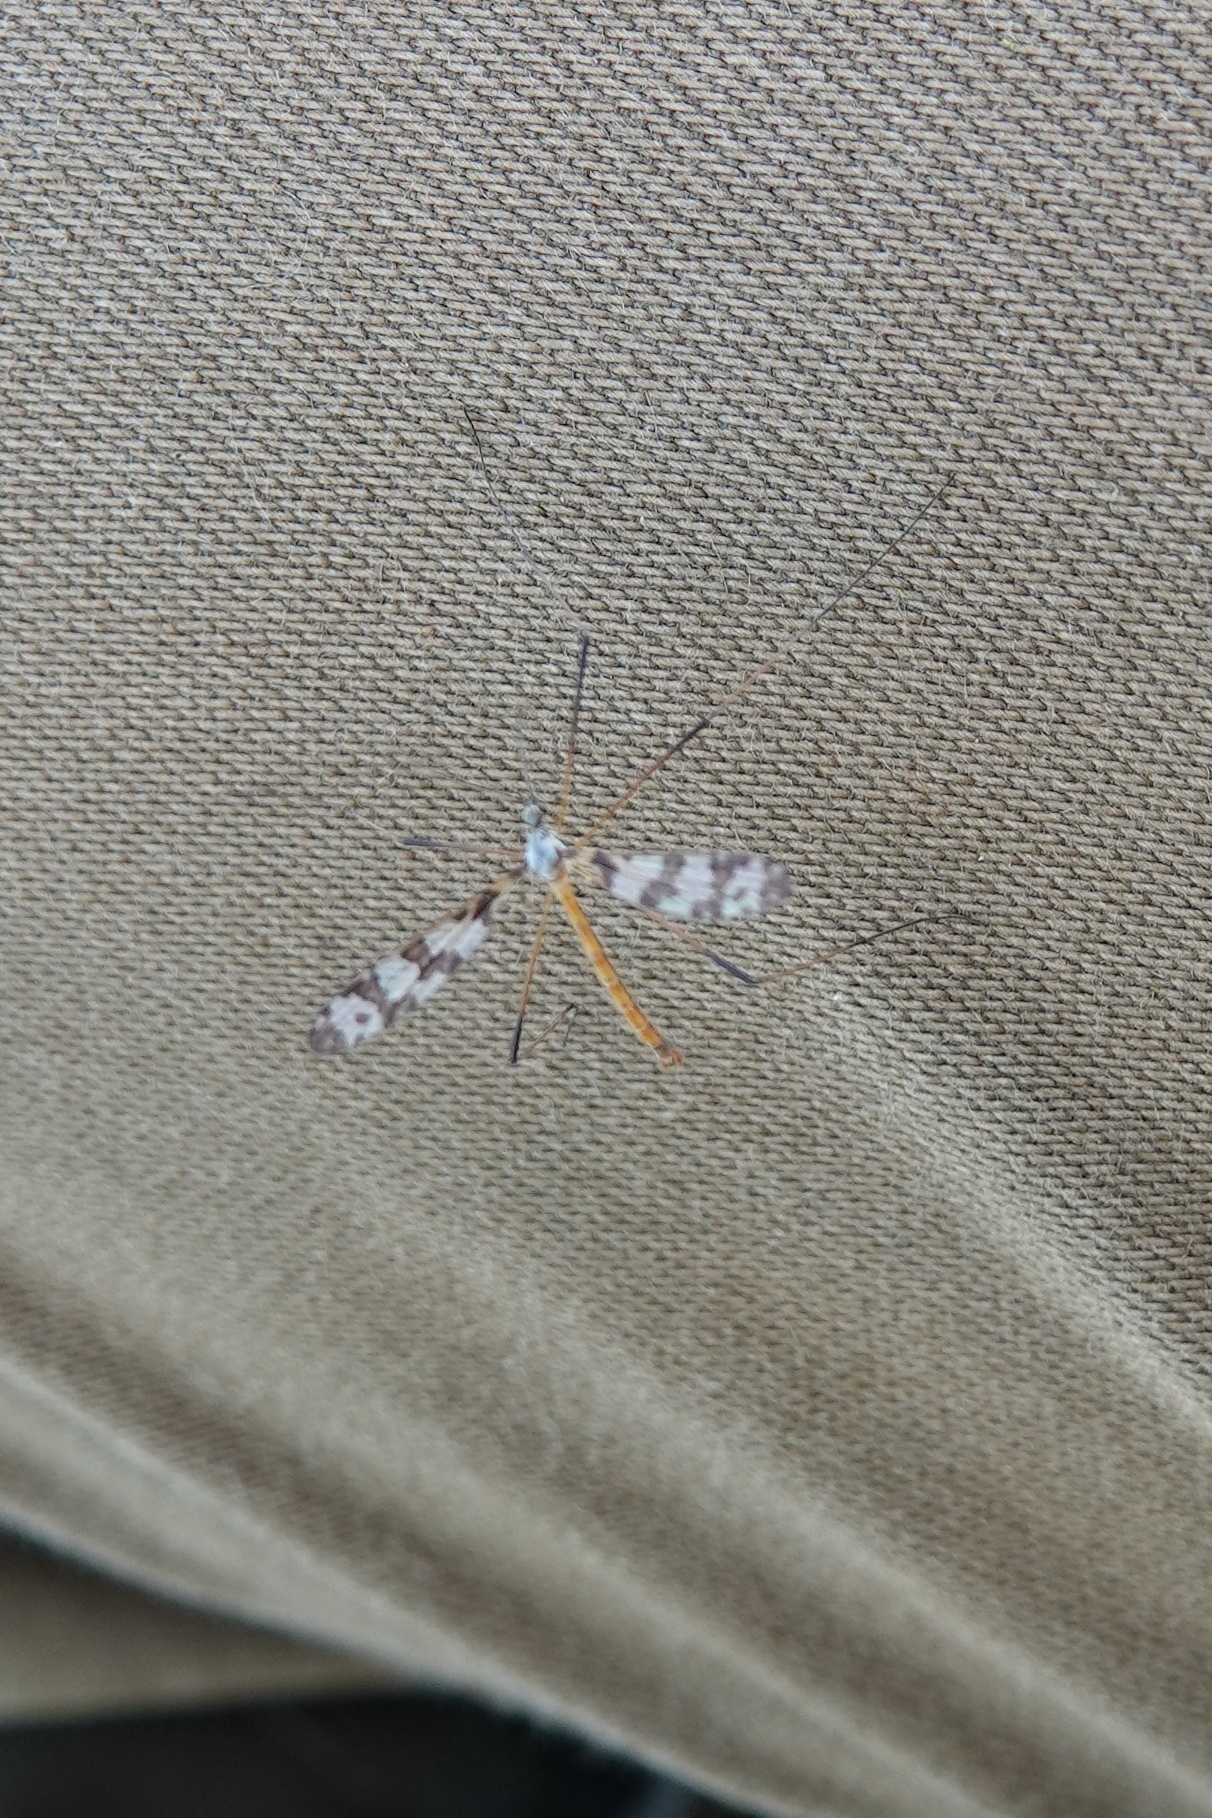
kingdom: Animalia
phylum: Arthropoda
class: Insecta
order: Diptera
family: Limoniidae
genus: Idioptera
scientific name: Idioptera pulchella
